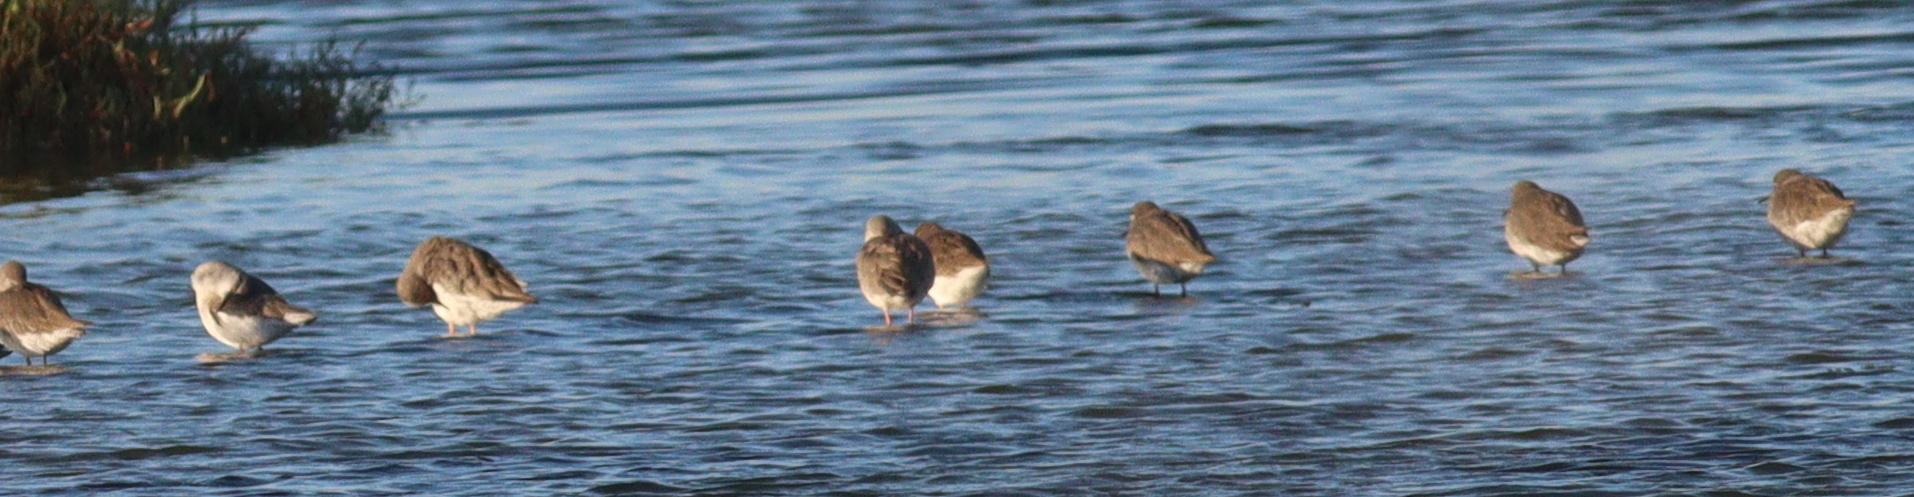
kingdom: Animalia
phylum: Chordata
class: Aves
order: Charadriiformes
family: Scolopacidae
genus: Tringa
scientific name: Tringa totanus
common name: Common redshank
